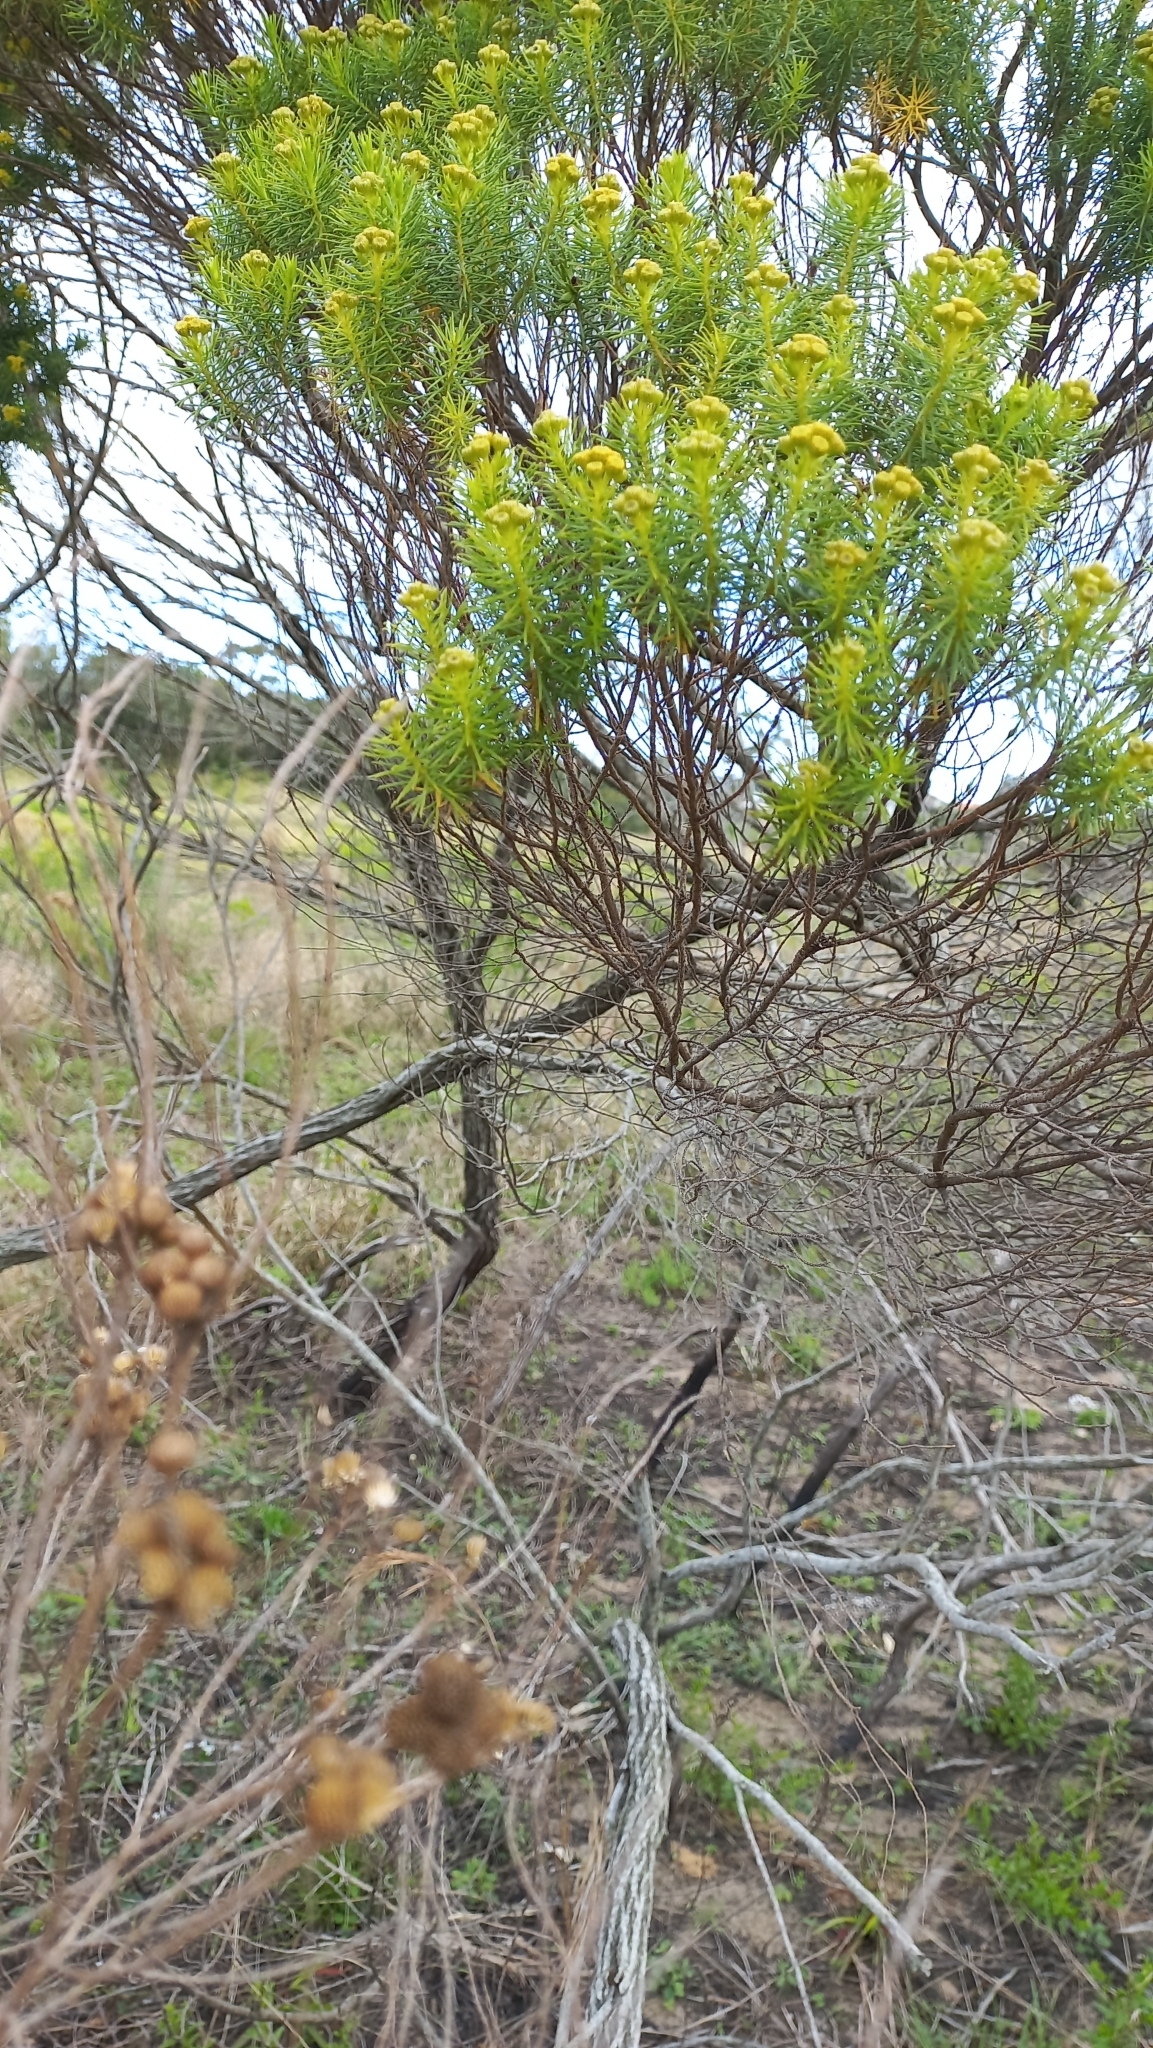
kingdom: Plantae
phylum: Tracheophyta
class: Magnoliopsida
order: Asterales
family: Asteraceae
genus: Baccharis
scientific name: Baccharis aliena
